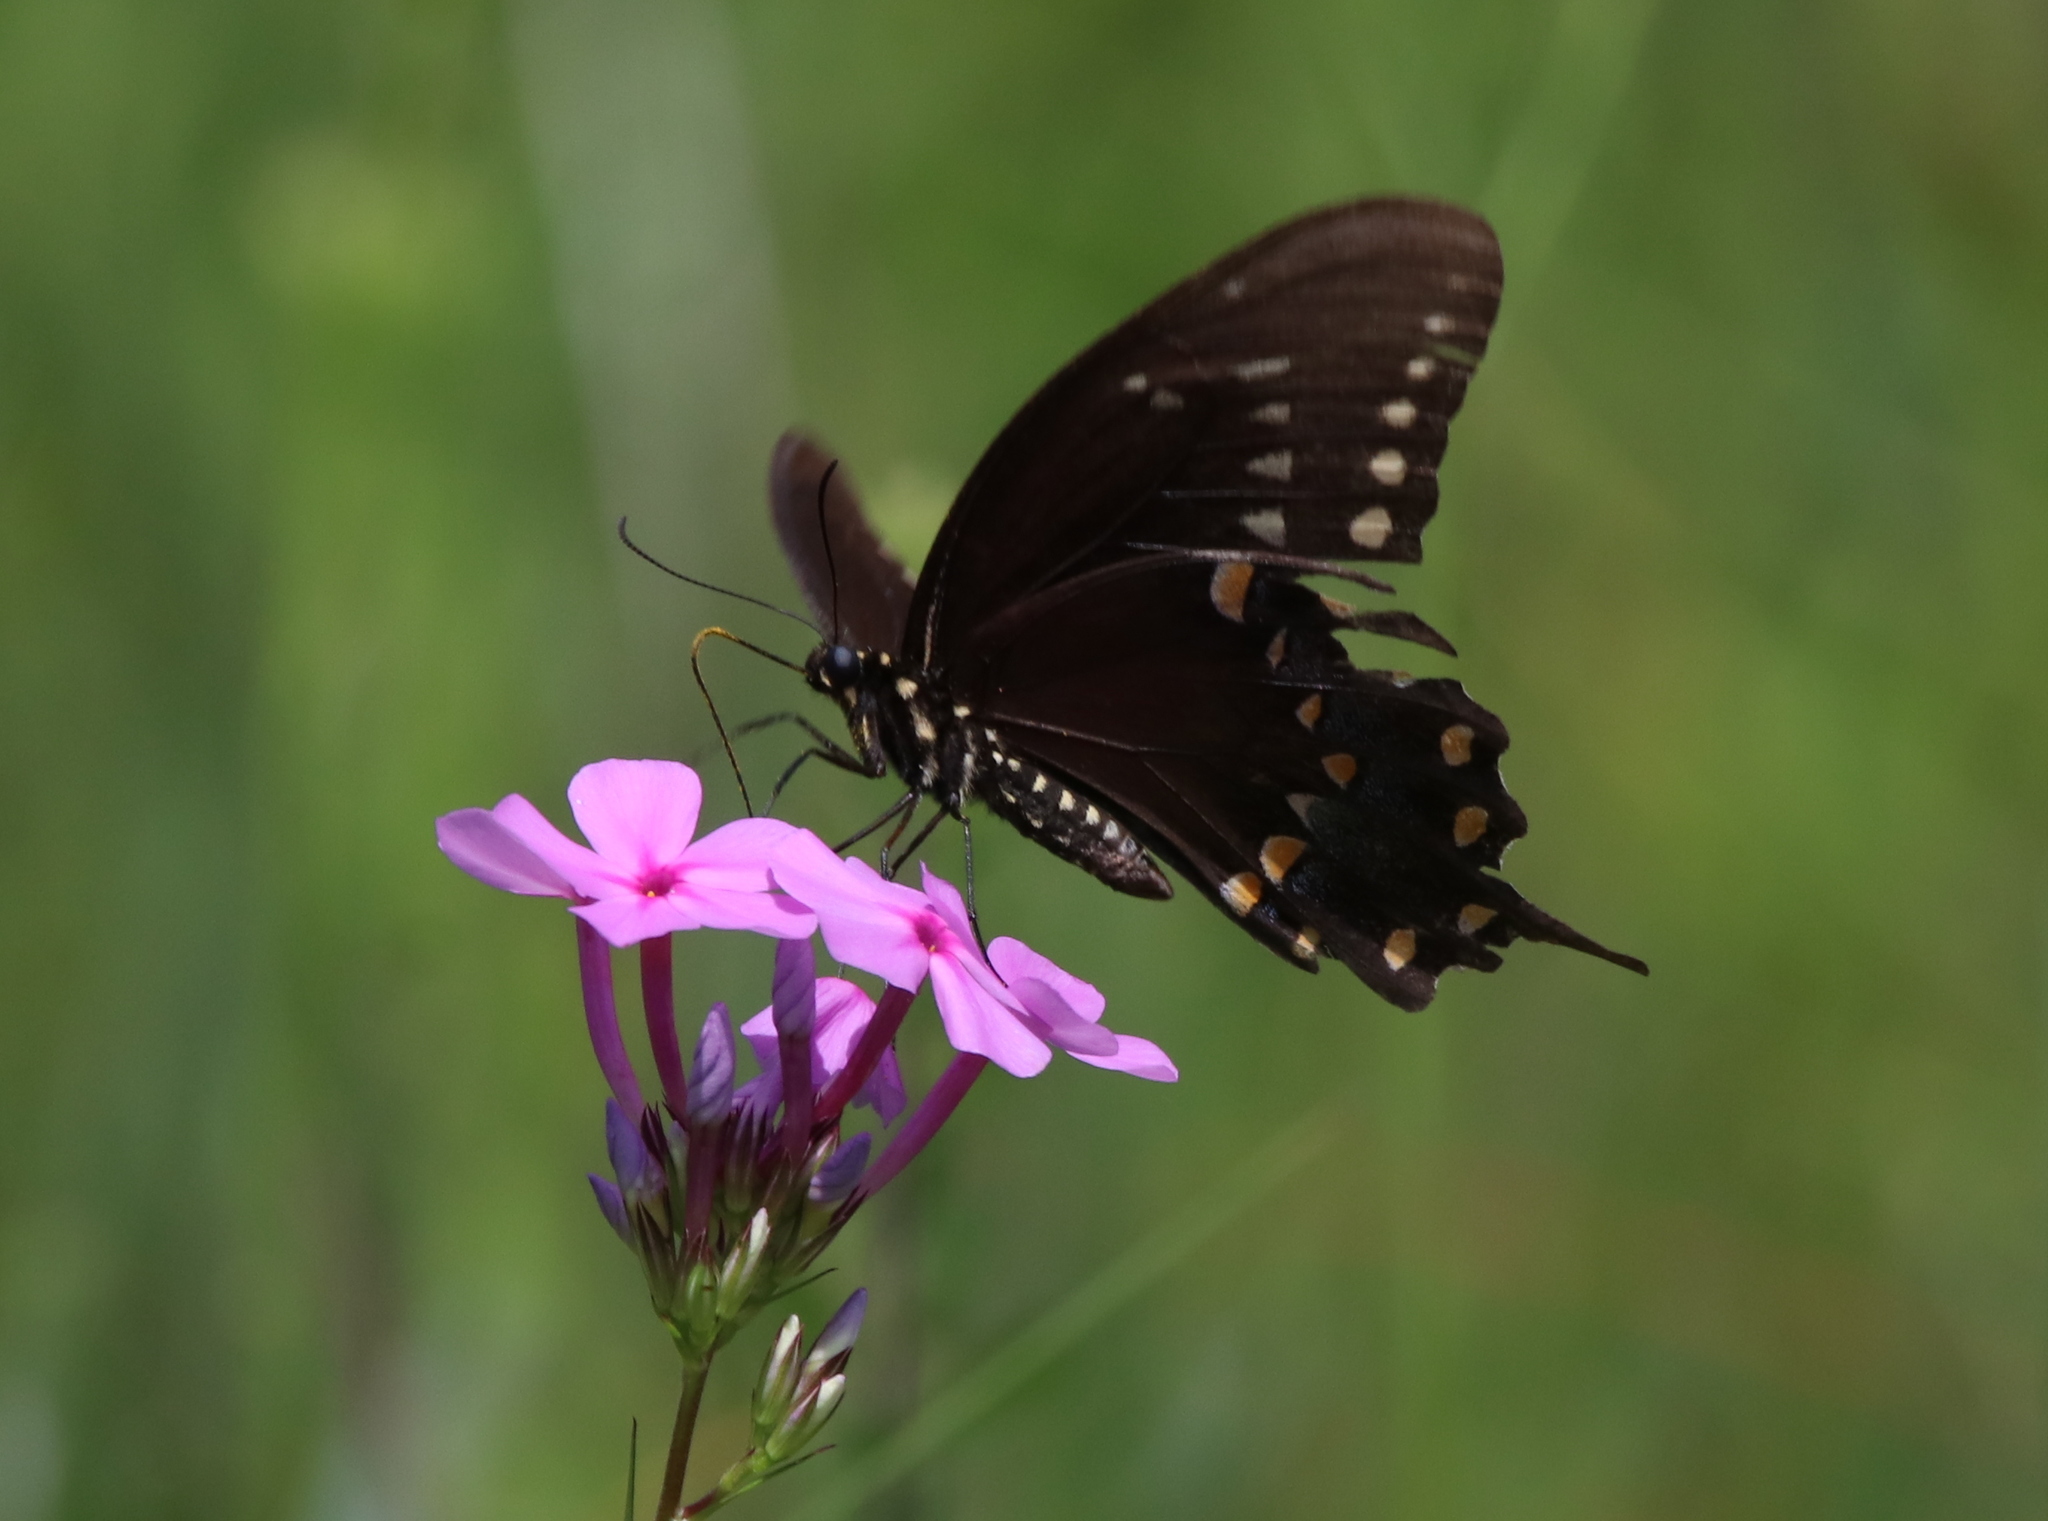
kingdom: Animalia
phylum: Arthropoda
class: Insecta
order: Lepidoptera
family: Papilionidae
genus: Papilio
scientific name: Papilio troilus
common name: Spicebush swallowtail
